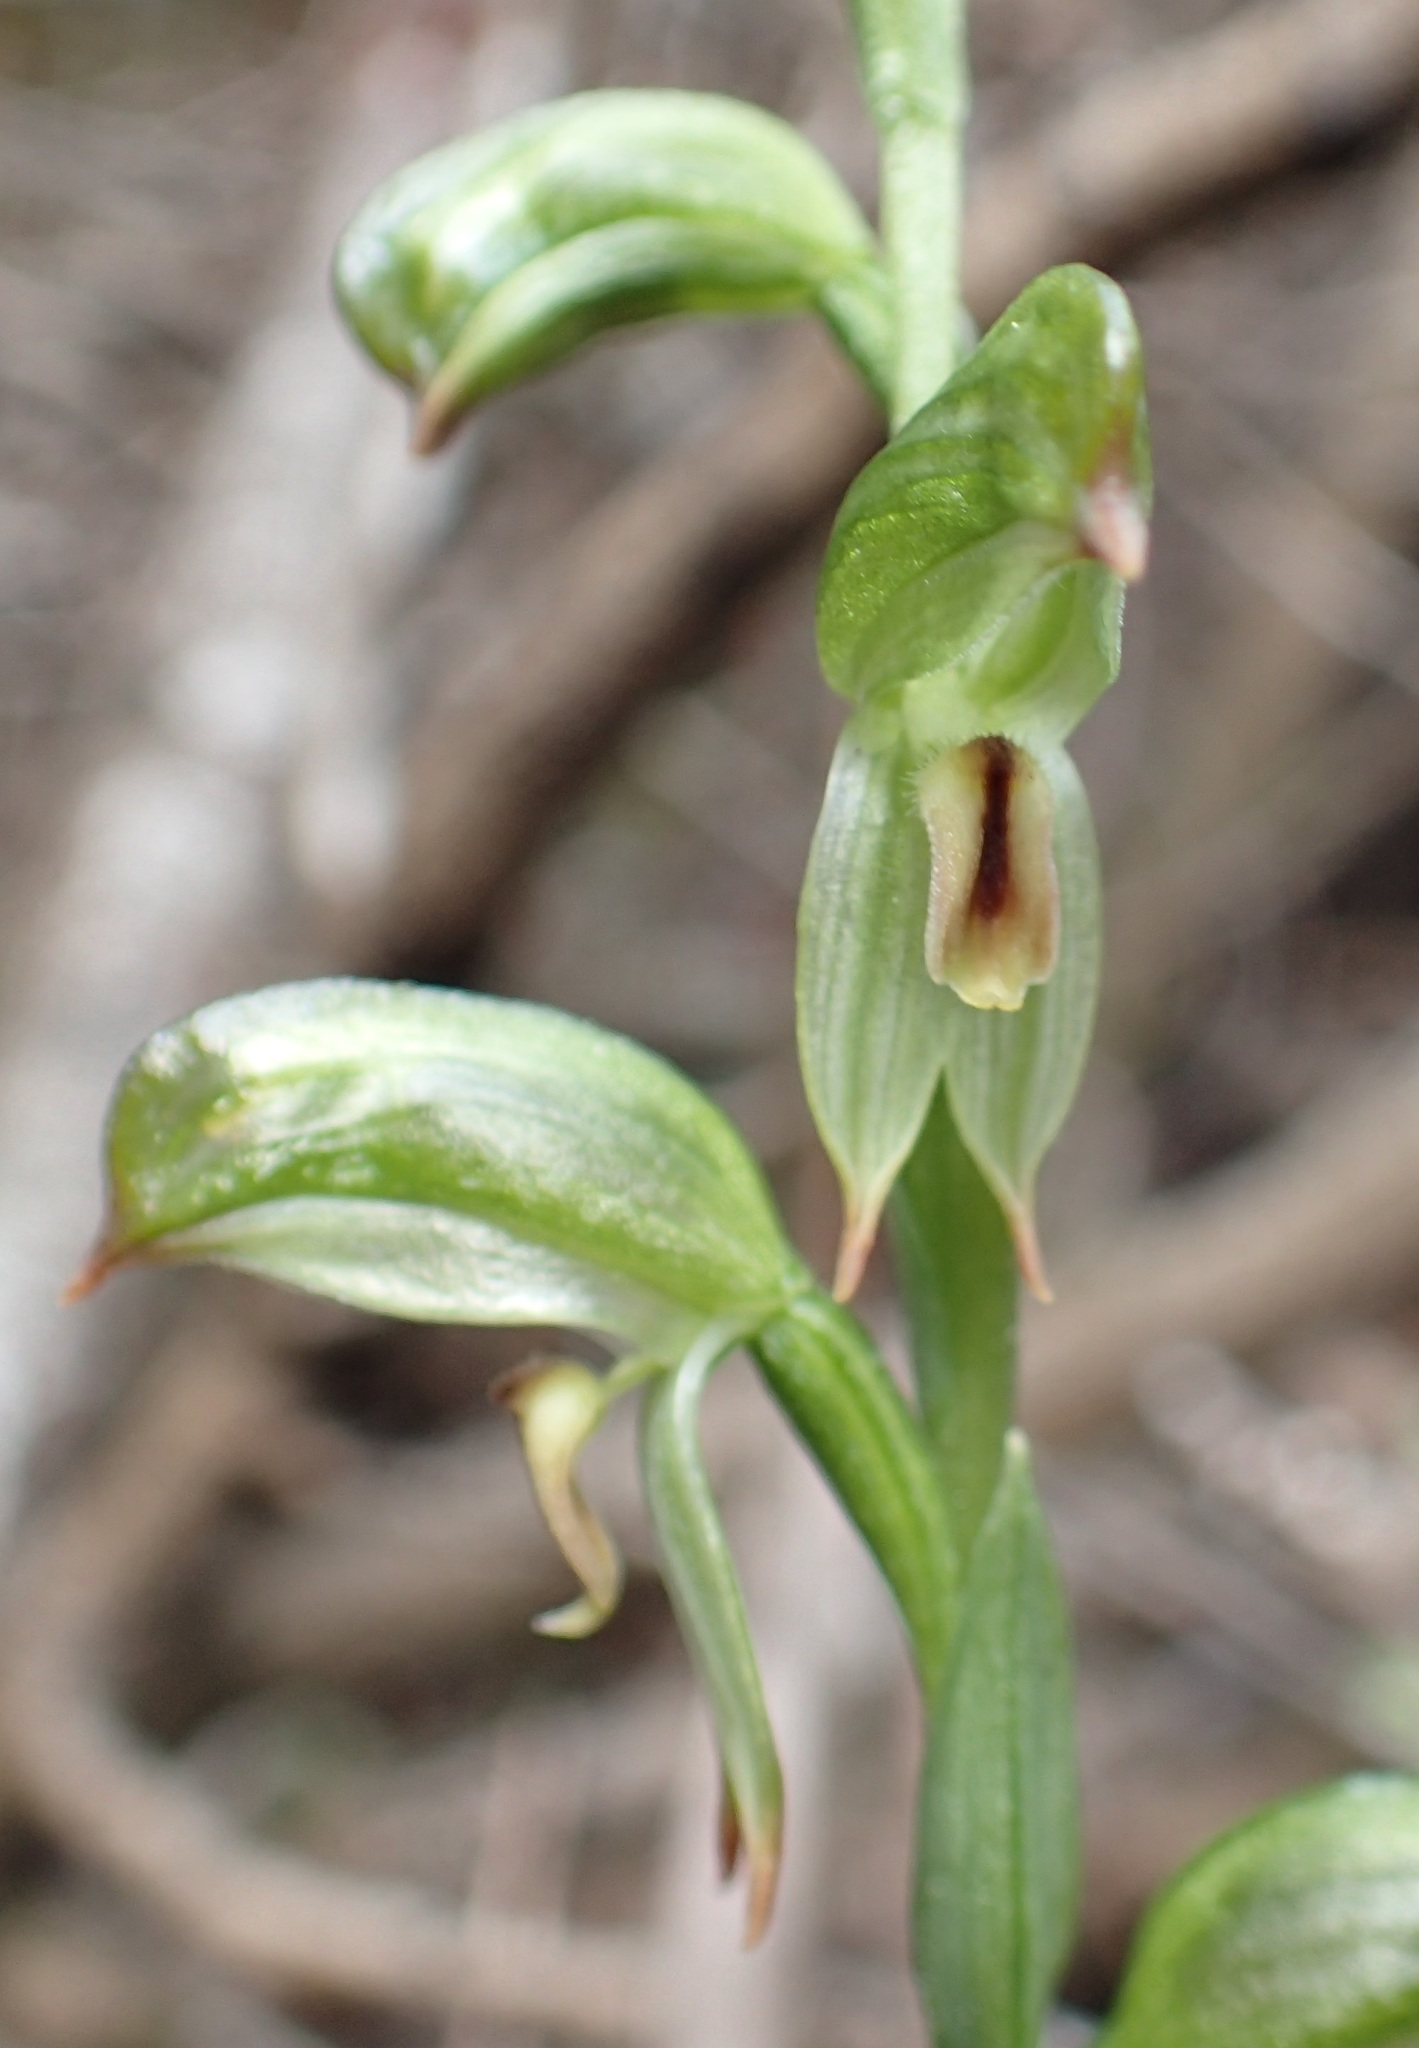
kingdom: Plantae
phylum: Tracheophyta
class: Liliopsida
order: Asparagales
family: Orchidaceae
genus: Pterostylis
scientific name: Pterostylis melagramma
